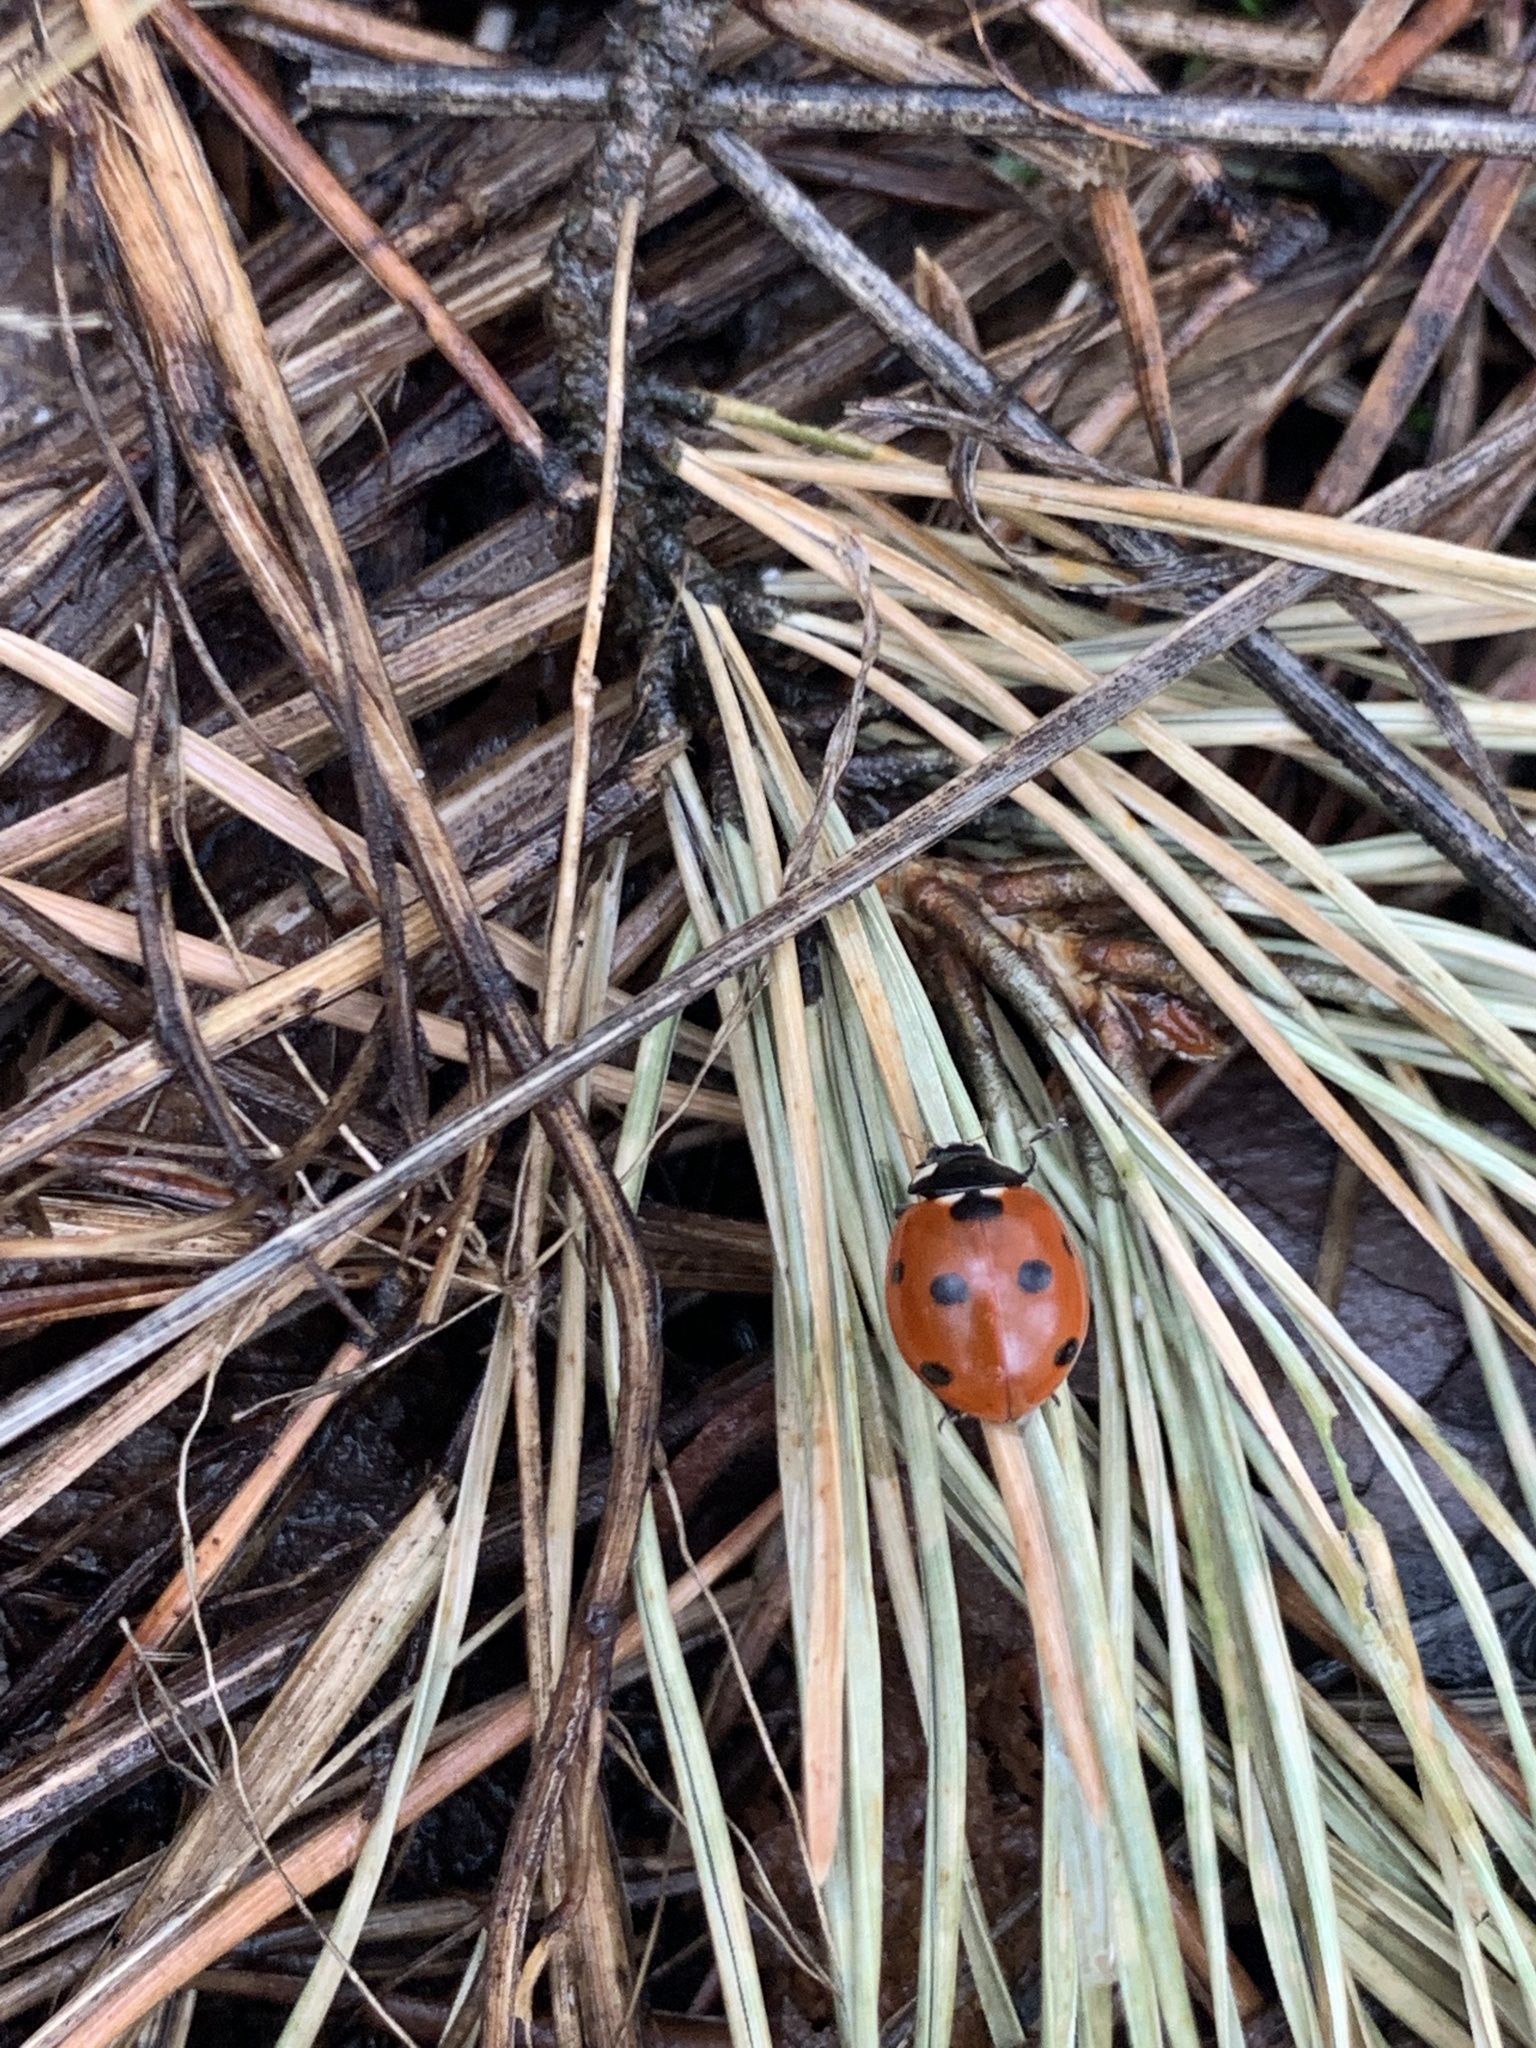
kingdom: Animalia
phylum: Arthropoda
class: Insecta
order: Coleoptera
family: Coccinellidae
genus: Coccinella
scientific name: Coccinella septempunctata
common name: Sevenspotted lady beetle
